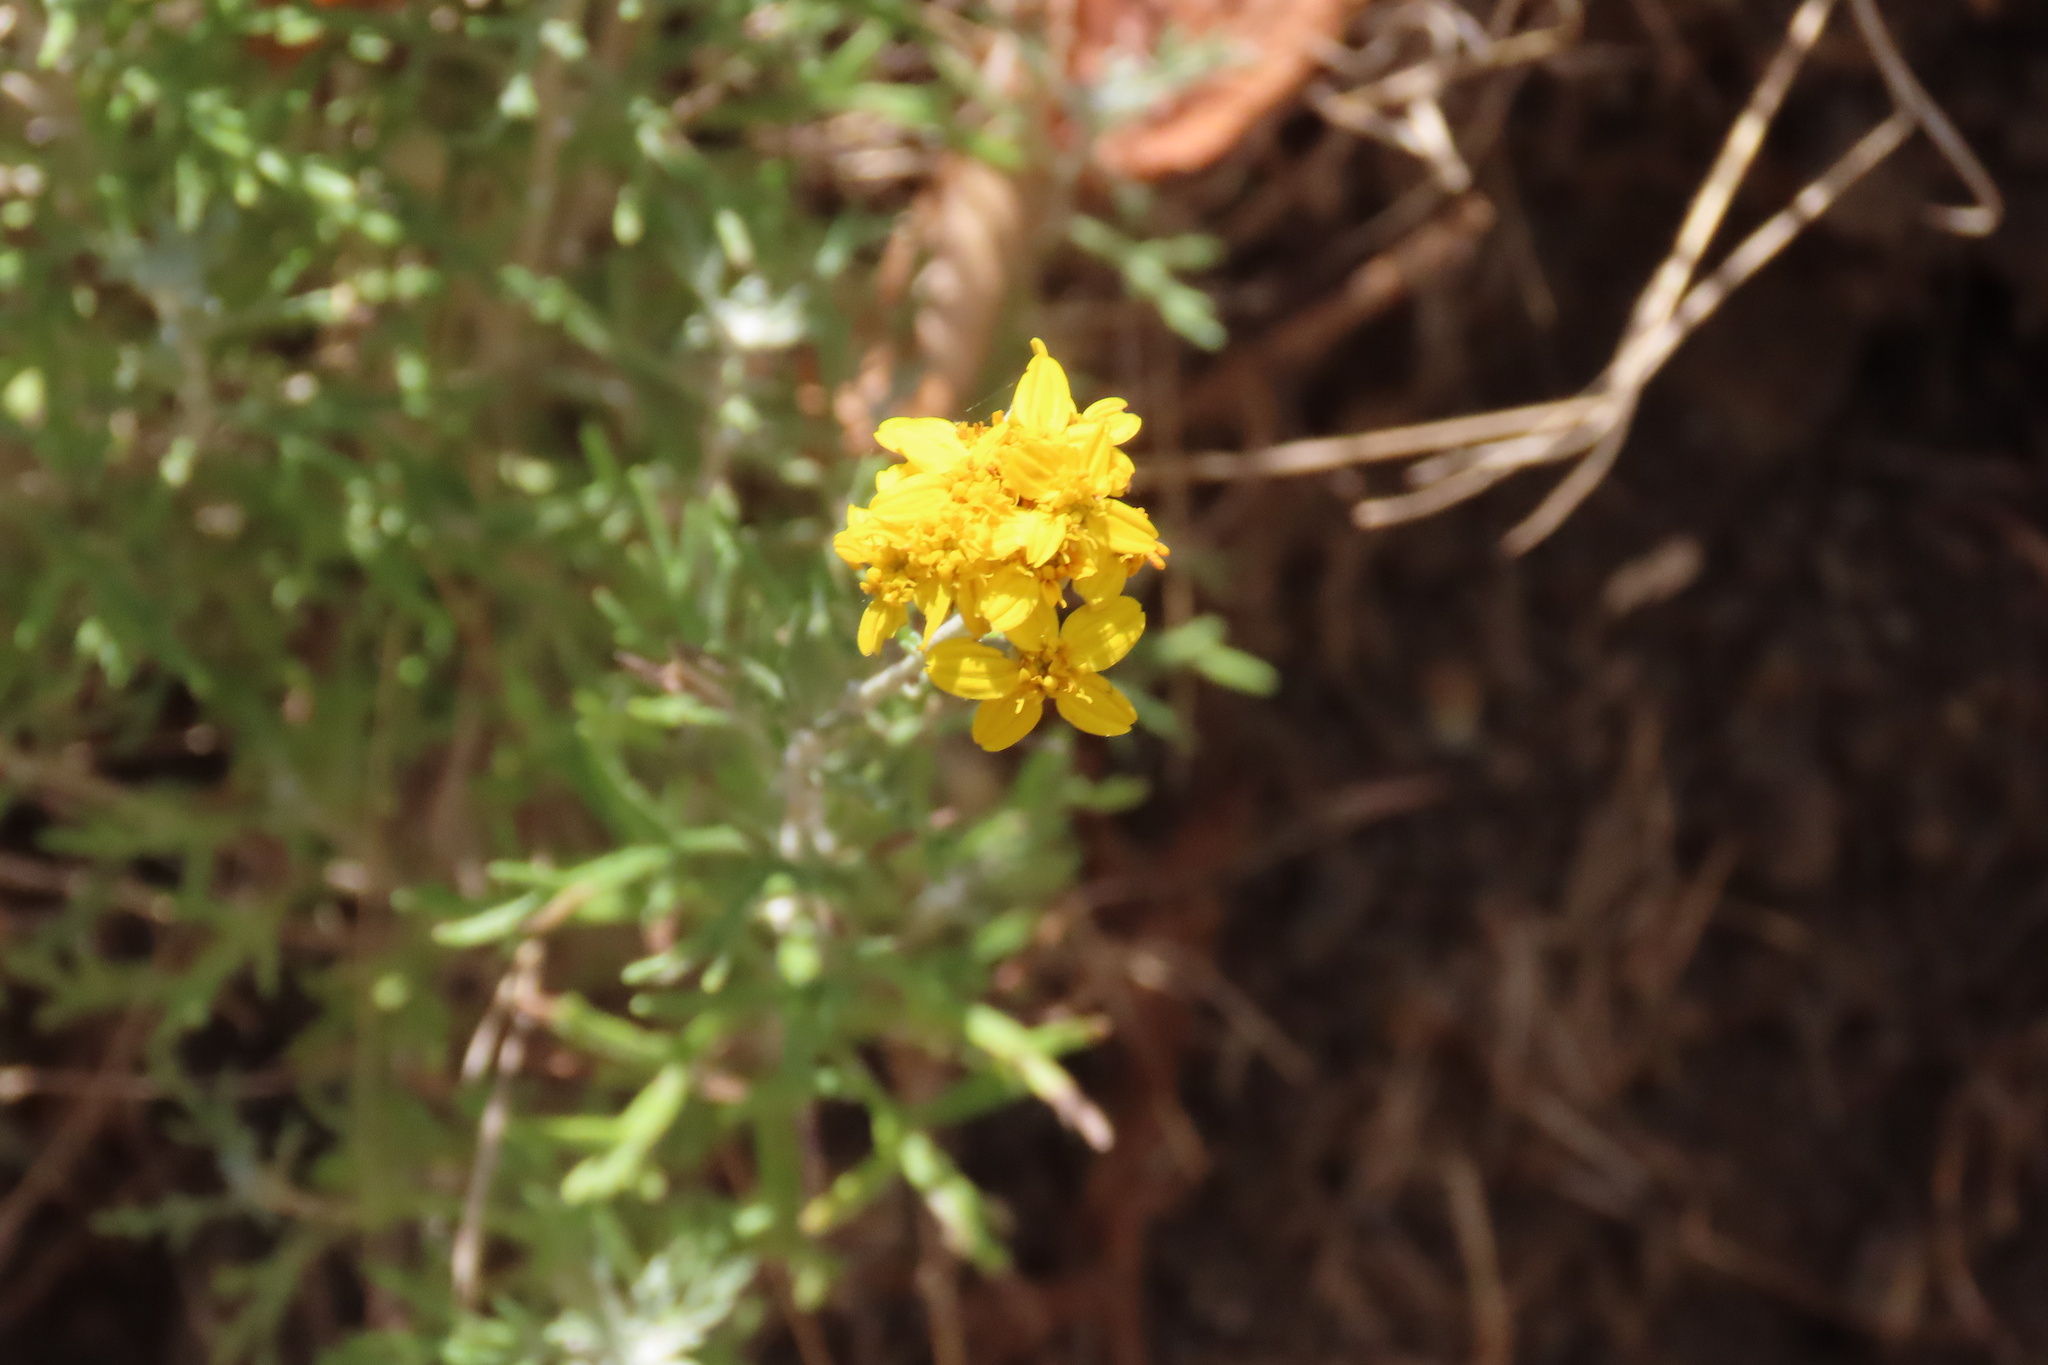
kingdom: Plantae
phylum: Tracheophyta
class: Magnoliopsida
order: Asterales
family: Asteraceae
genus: Eriophyllum
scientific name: Eriophyllum confertiflorum
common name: Golden-yarrow
